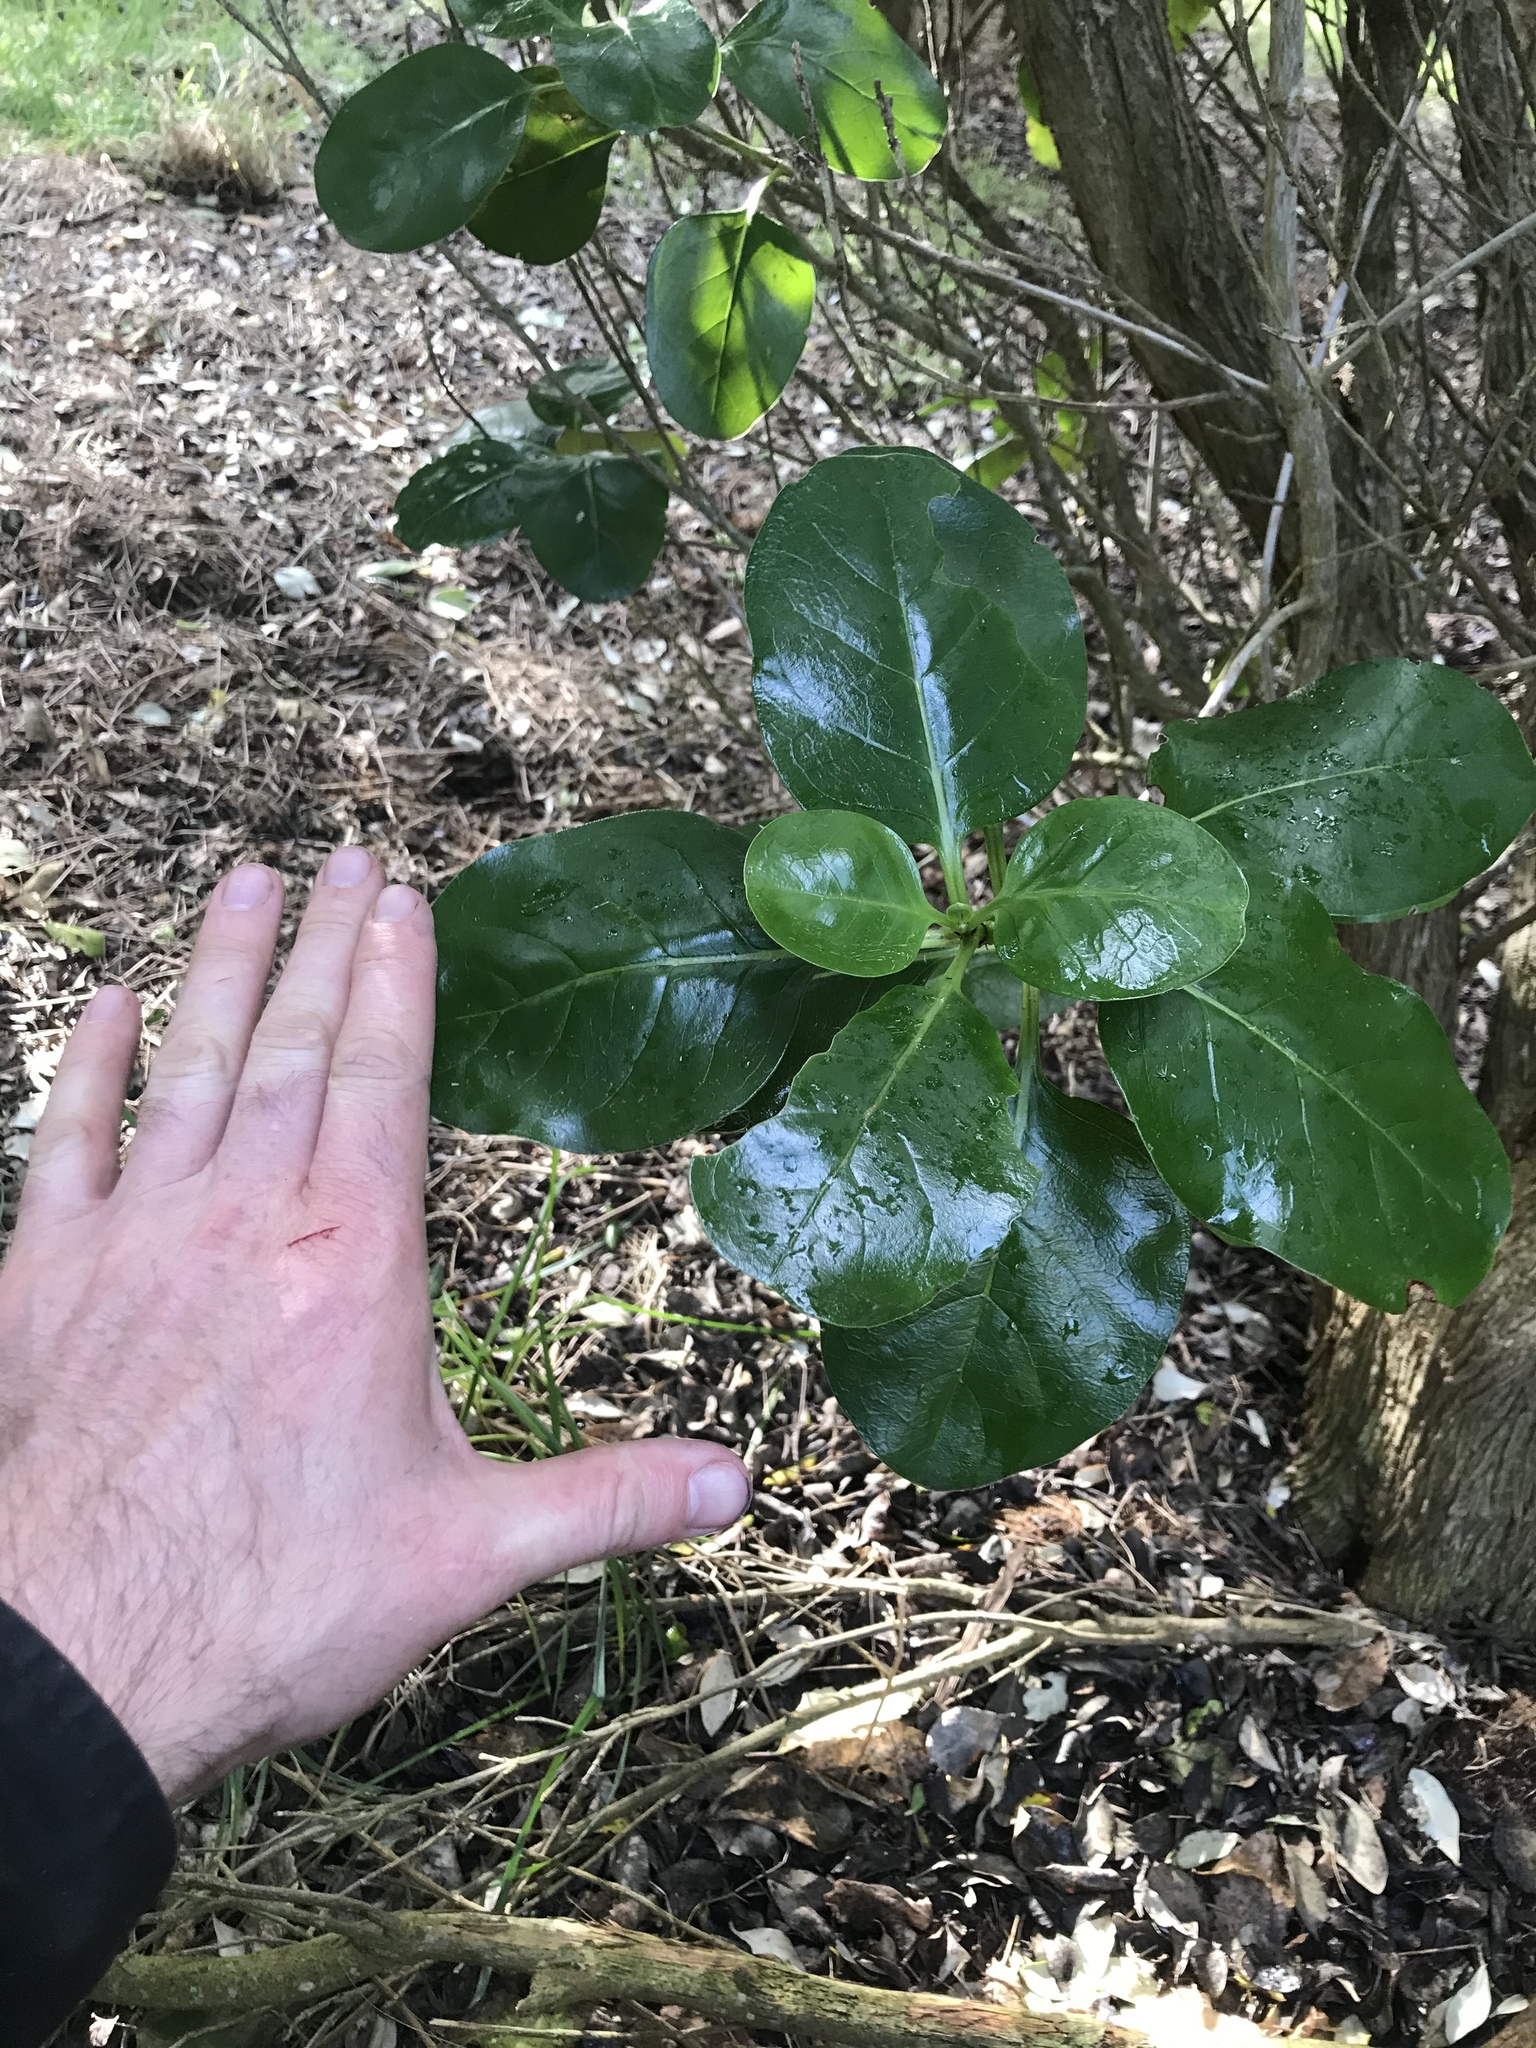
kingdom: Plantae
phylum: Tracheophyta
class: Magnoliopsida
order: Gentianales
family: Rubiaceae
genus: Coprosma
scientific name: Coprosma repens
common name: Tree bedstraw
